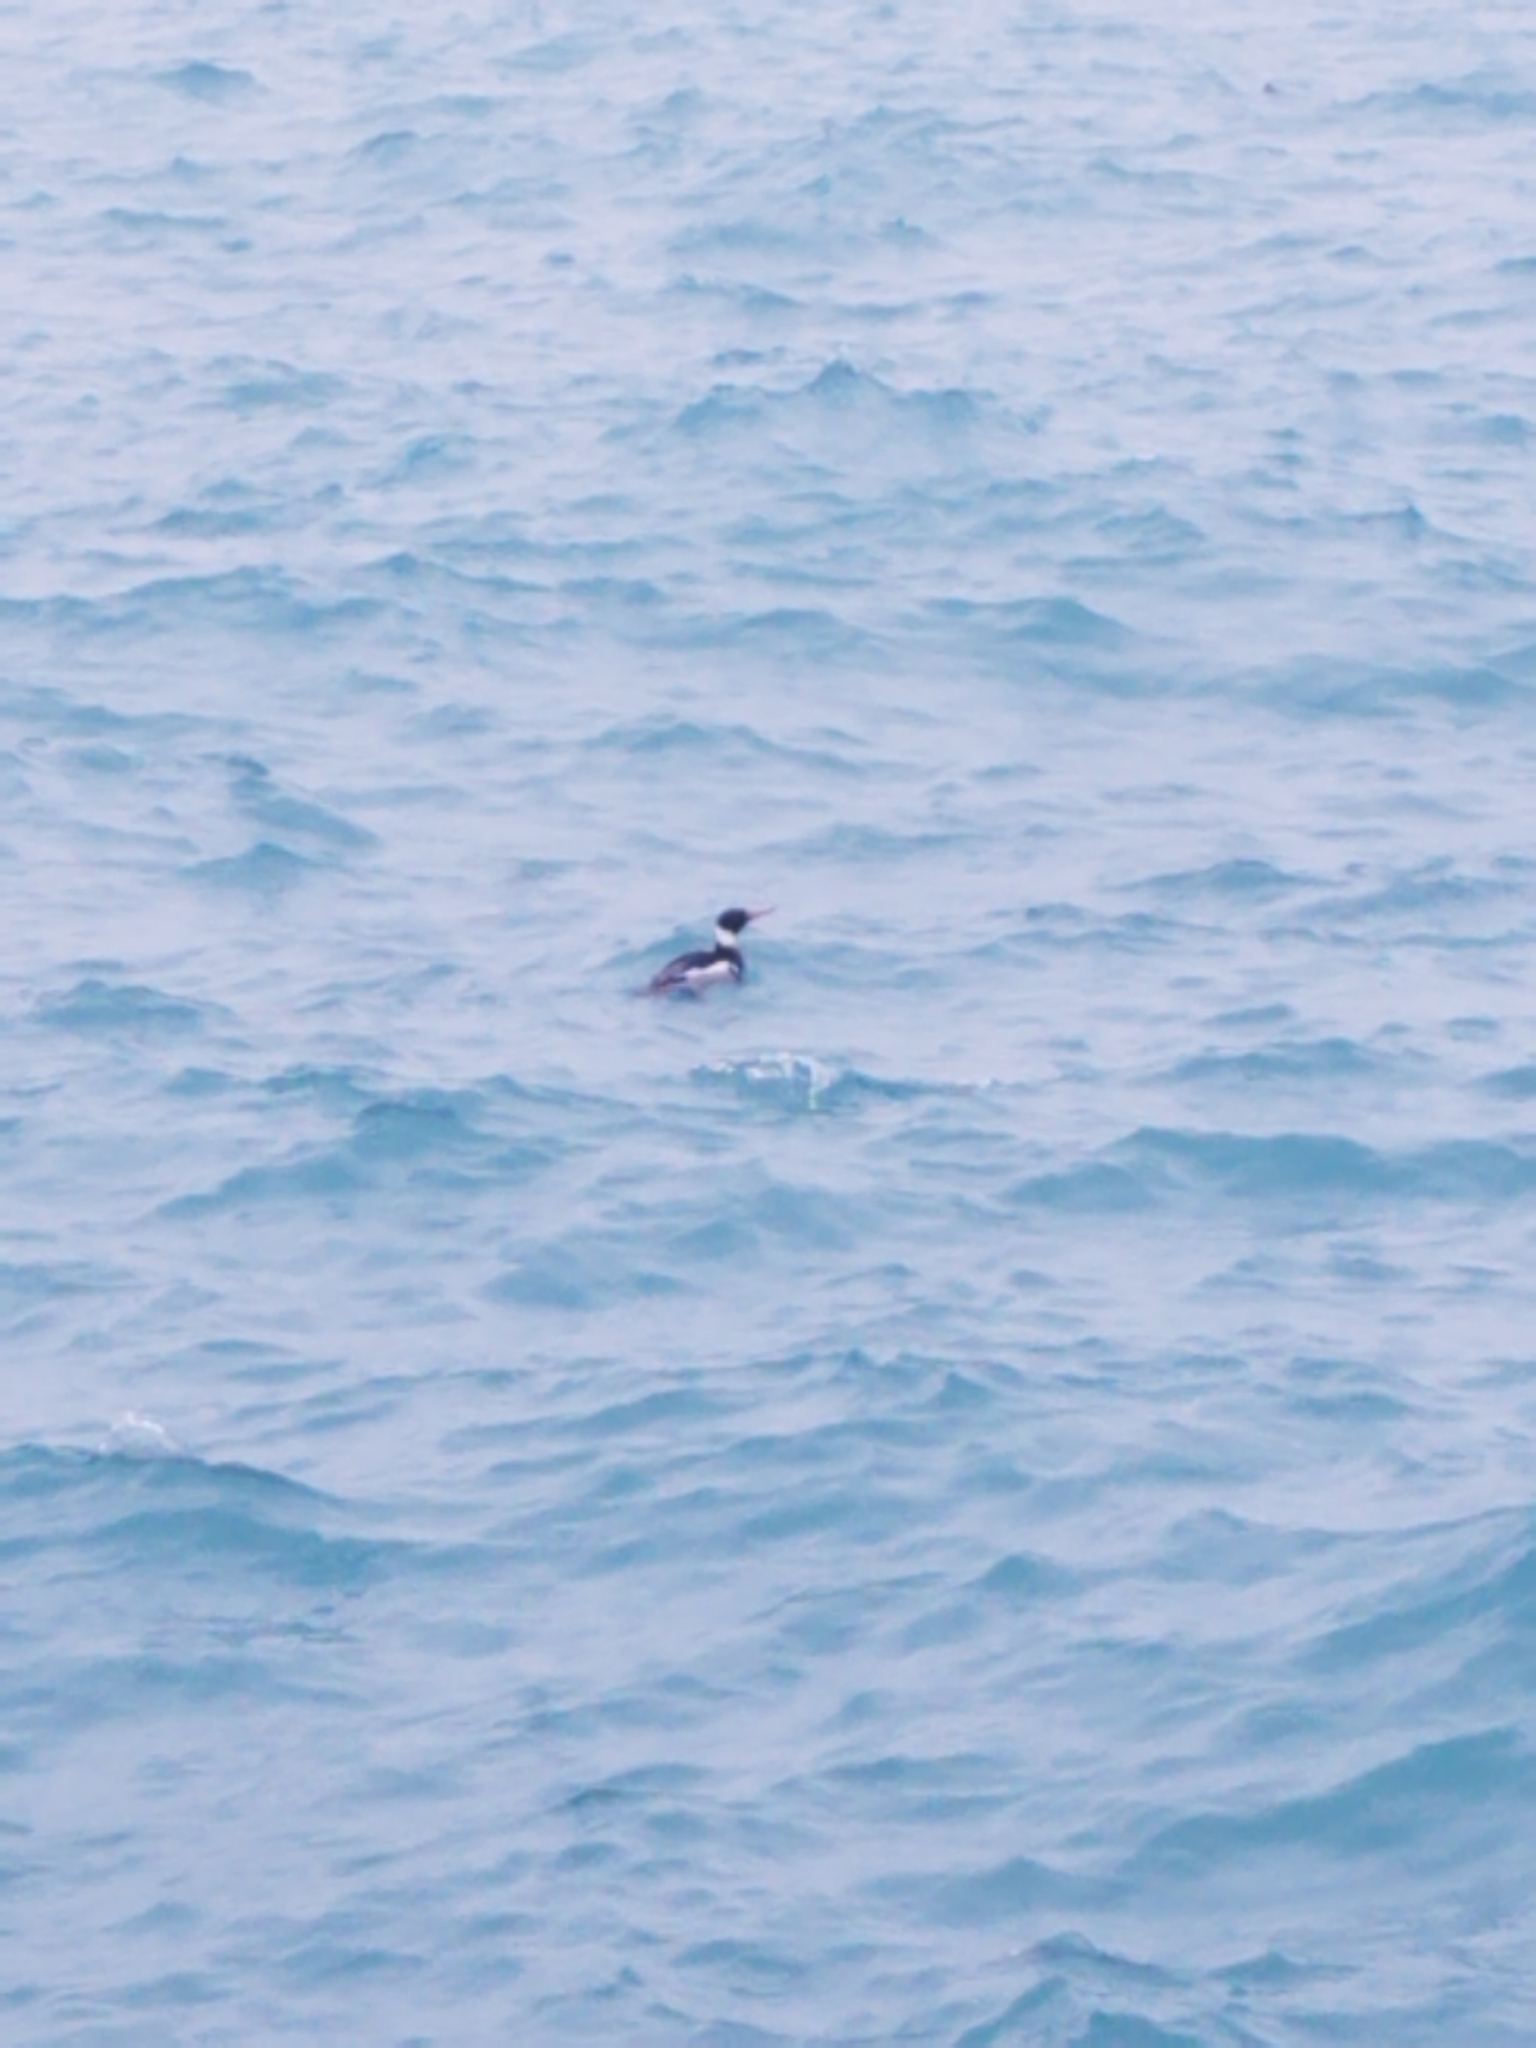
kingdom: Animalia
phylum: Chordata
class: Aves
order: Anseriformes
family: Anatidae
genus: Mergus
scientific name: Mergus serrator
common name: Red-breasted merganser
